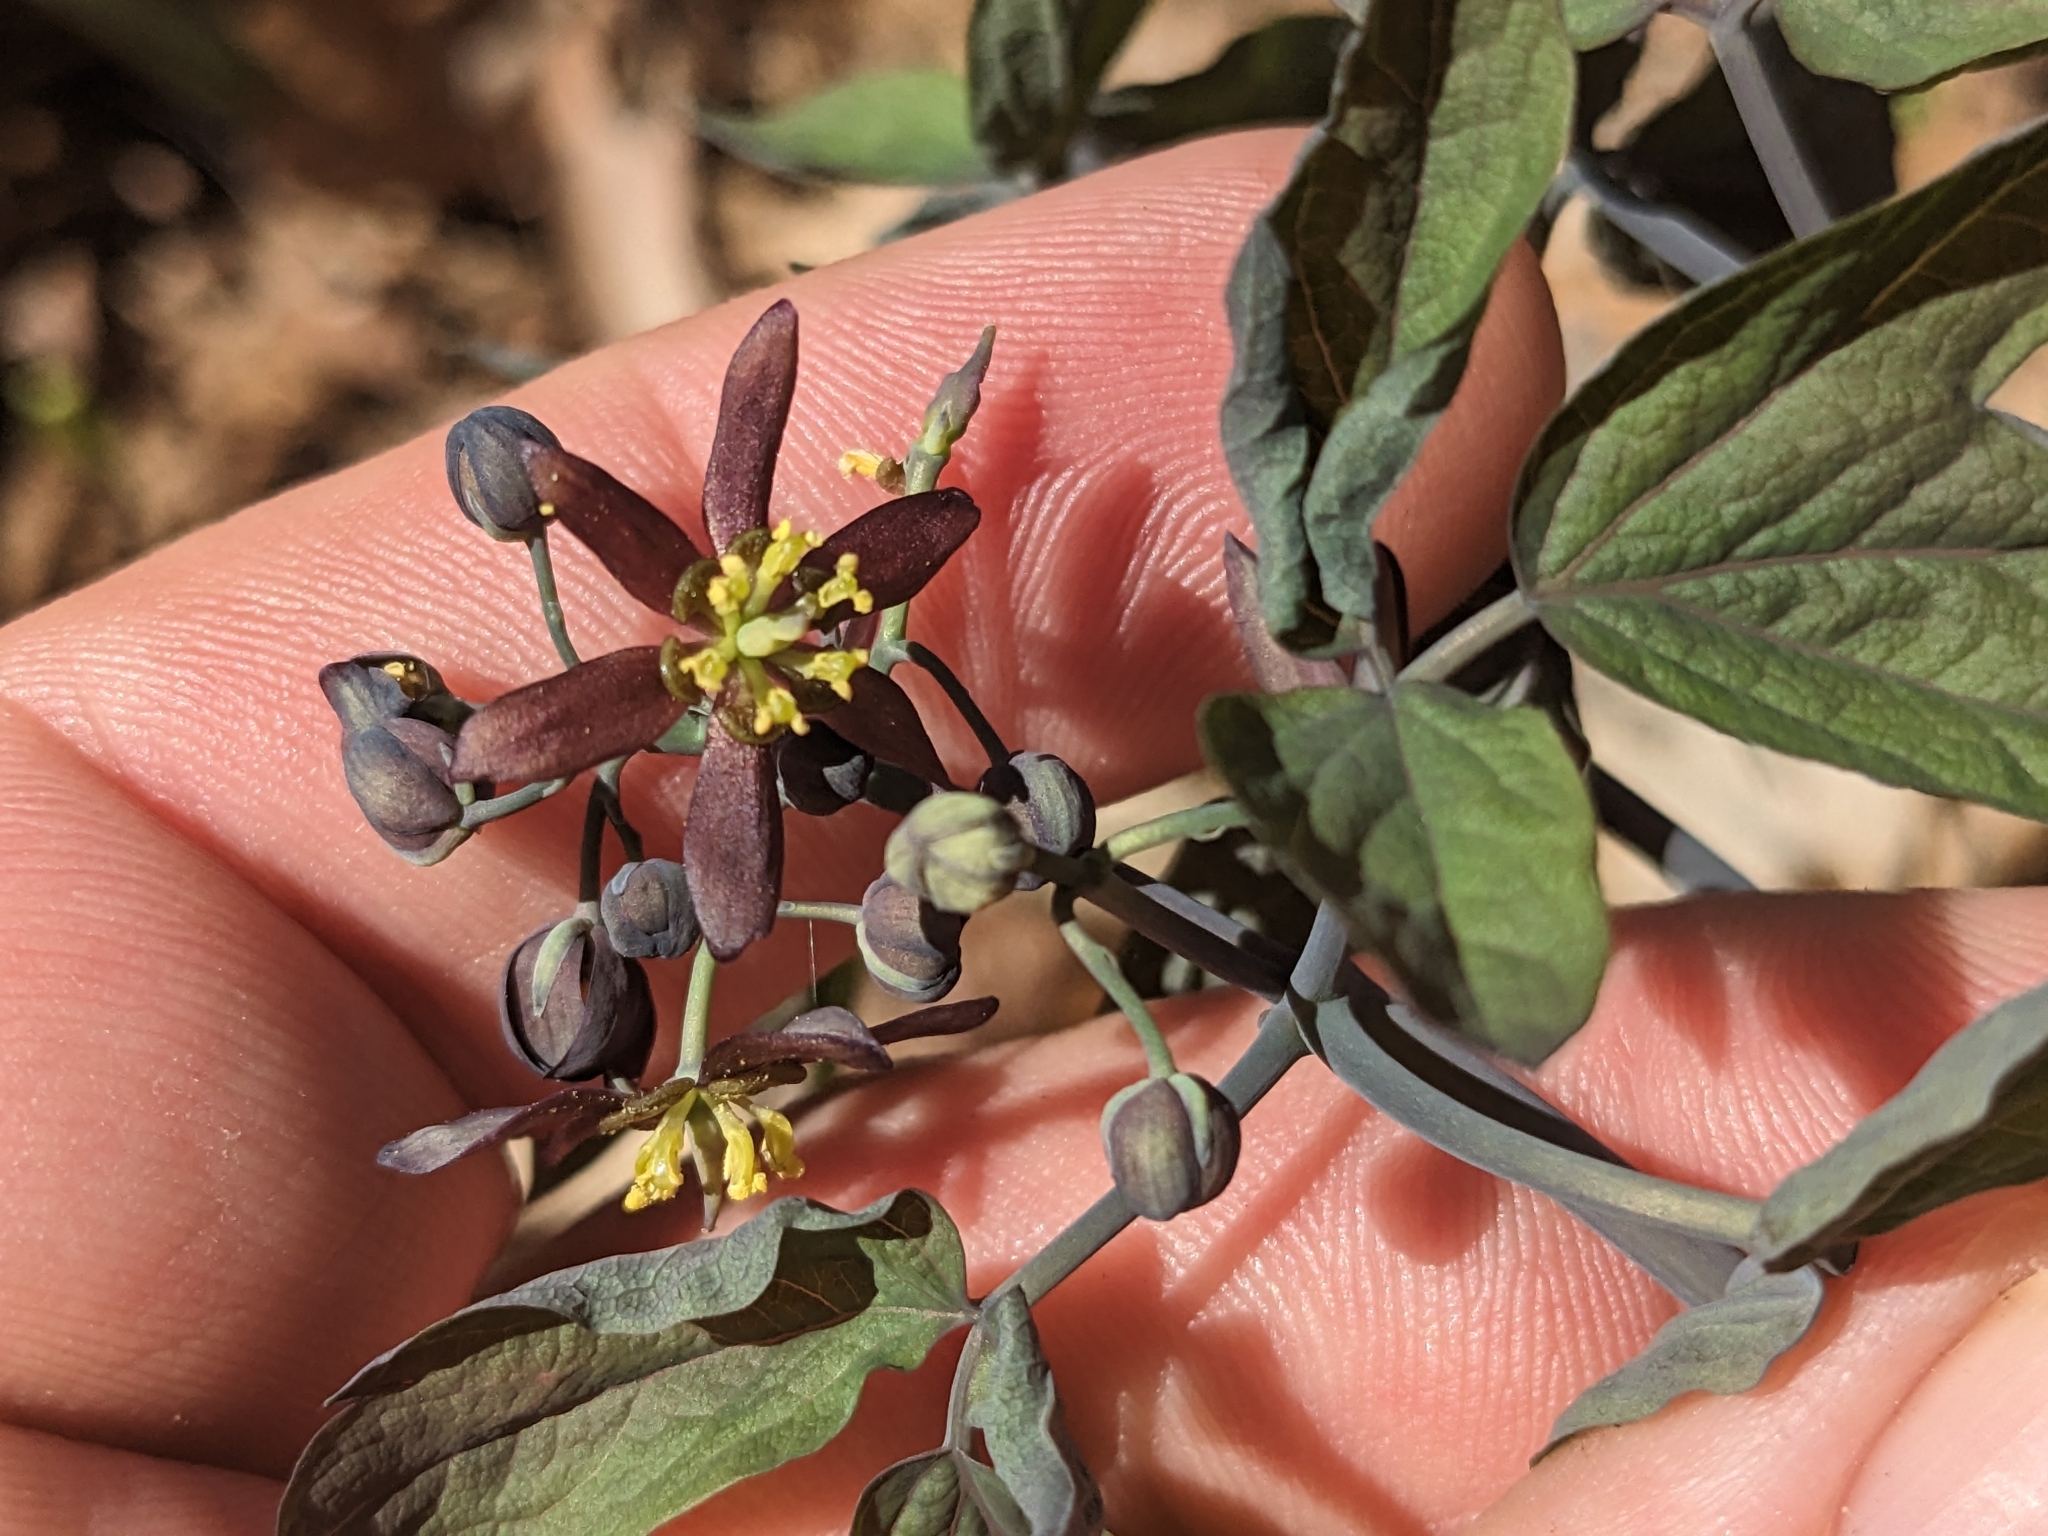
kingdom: Plantae
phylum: Tracheophyta
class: Magnoliopsida
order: Ranunculales
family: Berberidaceae
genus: Caulophyllum
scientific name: Caulophyllum giganteum
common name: Blue cohosh
